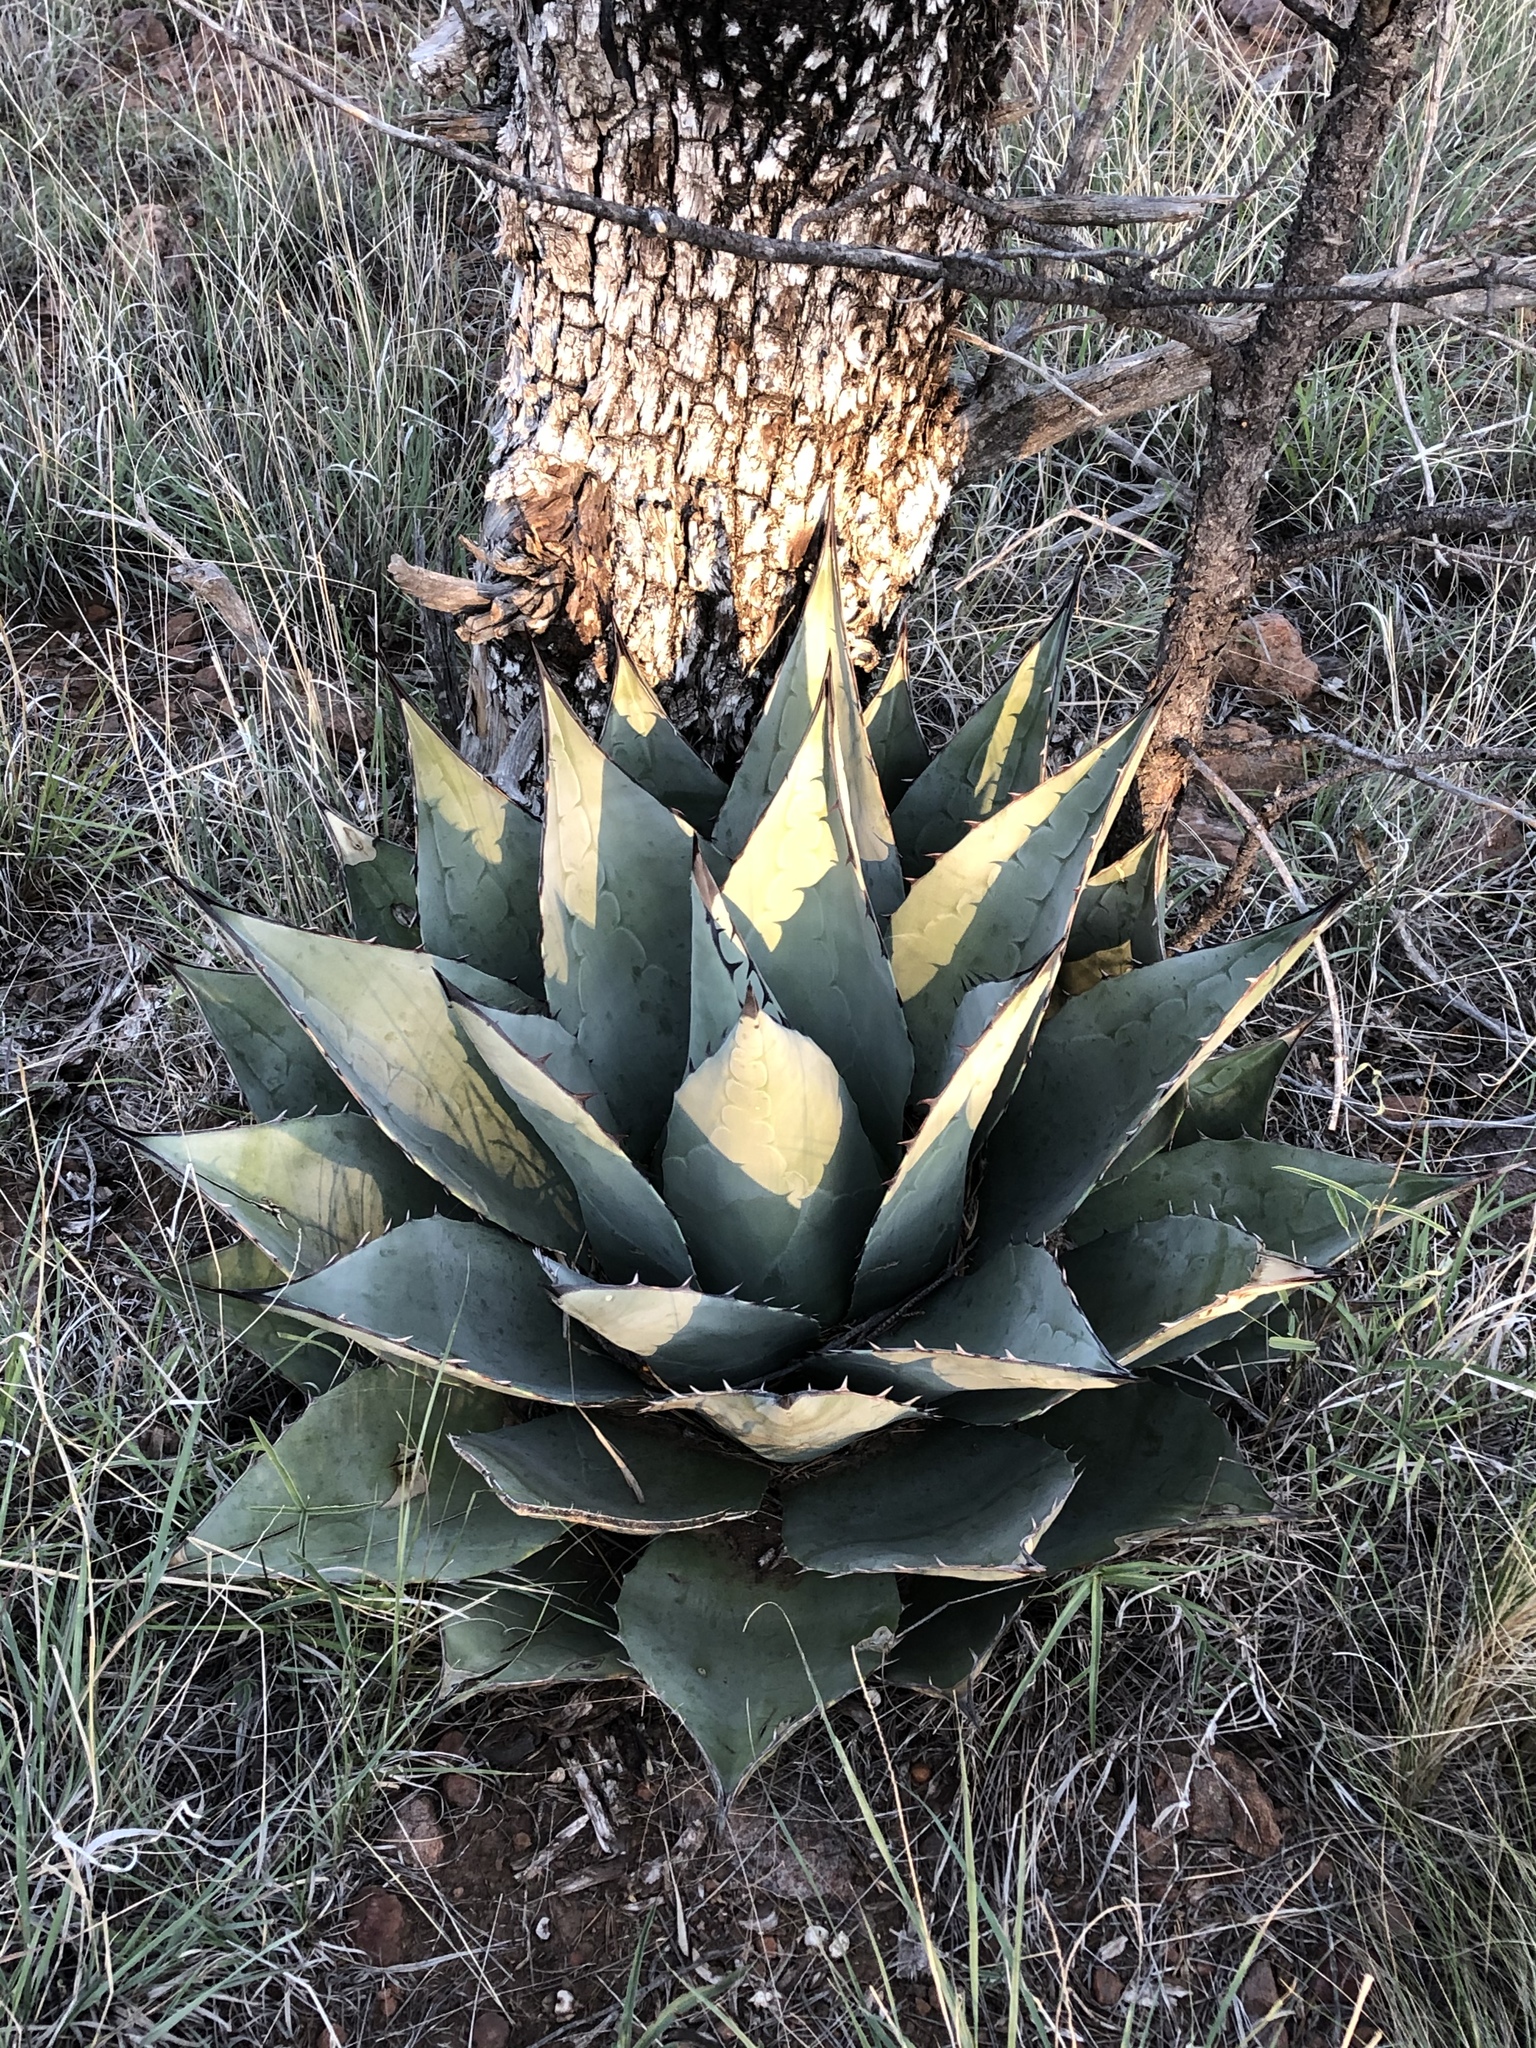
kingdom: Plantae
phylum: Tracheophyta
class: Liliopsida
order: Asparagales
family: Asparagaceae
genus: Agave
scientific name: Agave havardiana
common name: Havard agave
